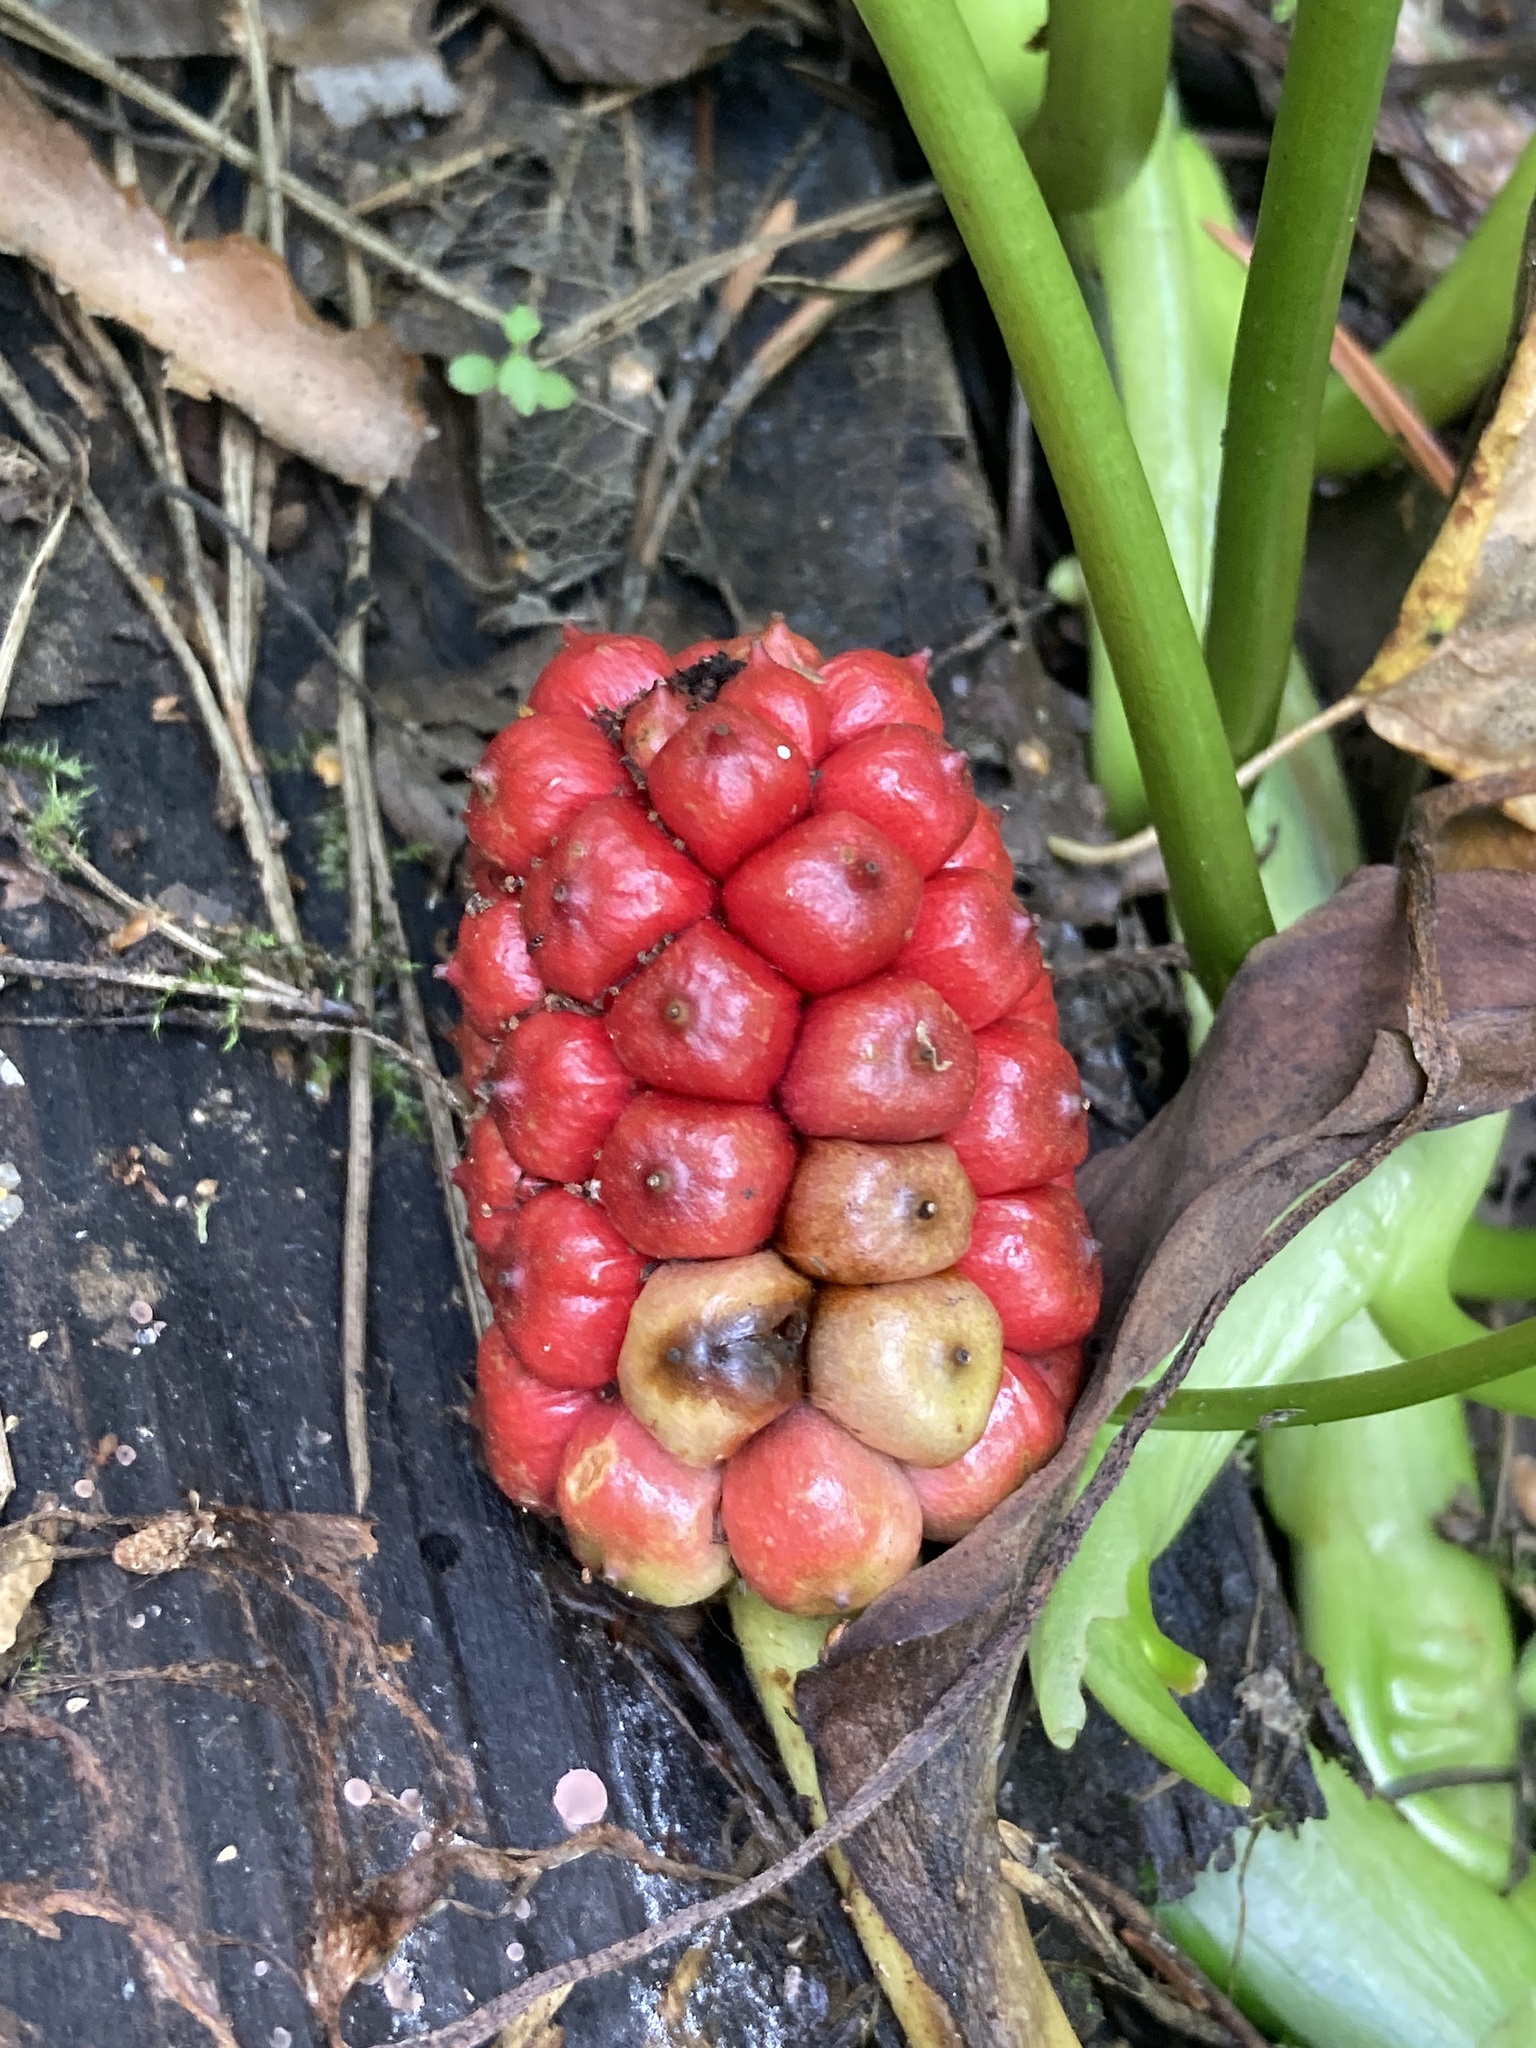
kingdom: Plantae
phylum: Tracheophyta
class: Liliopsida
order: Alismatales
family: Araceae
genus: Calla
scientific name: Calla palustris
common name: Bog arum
